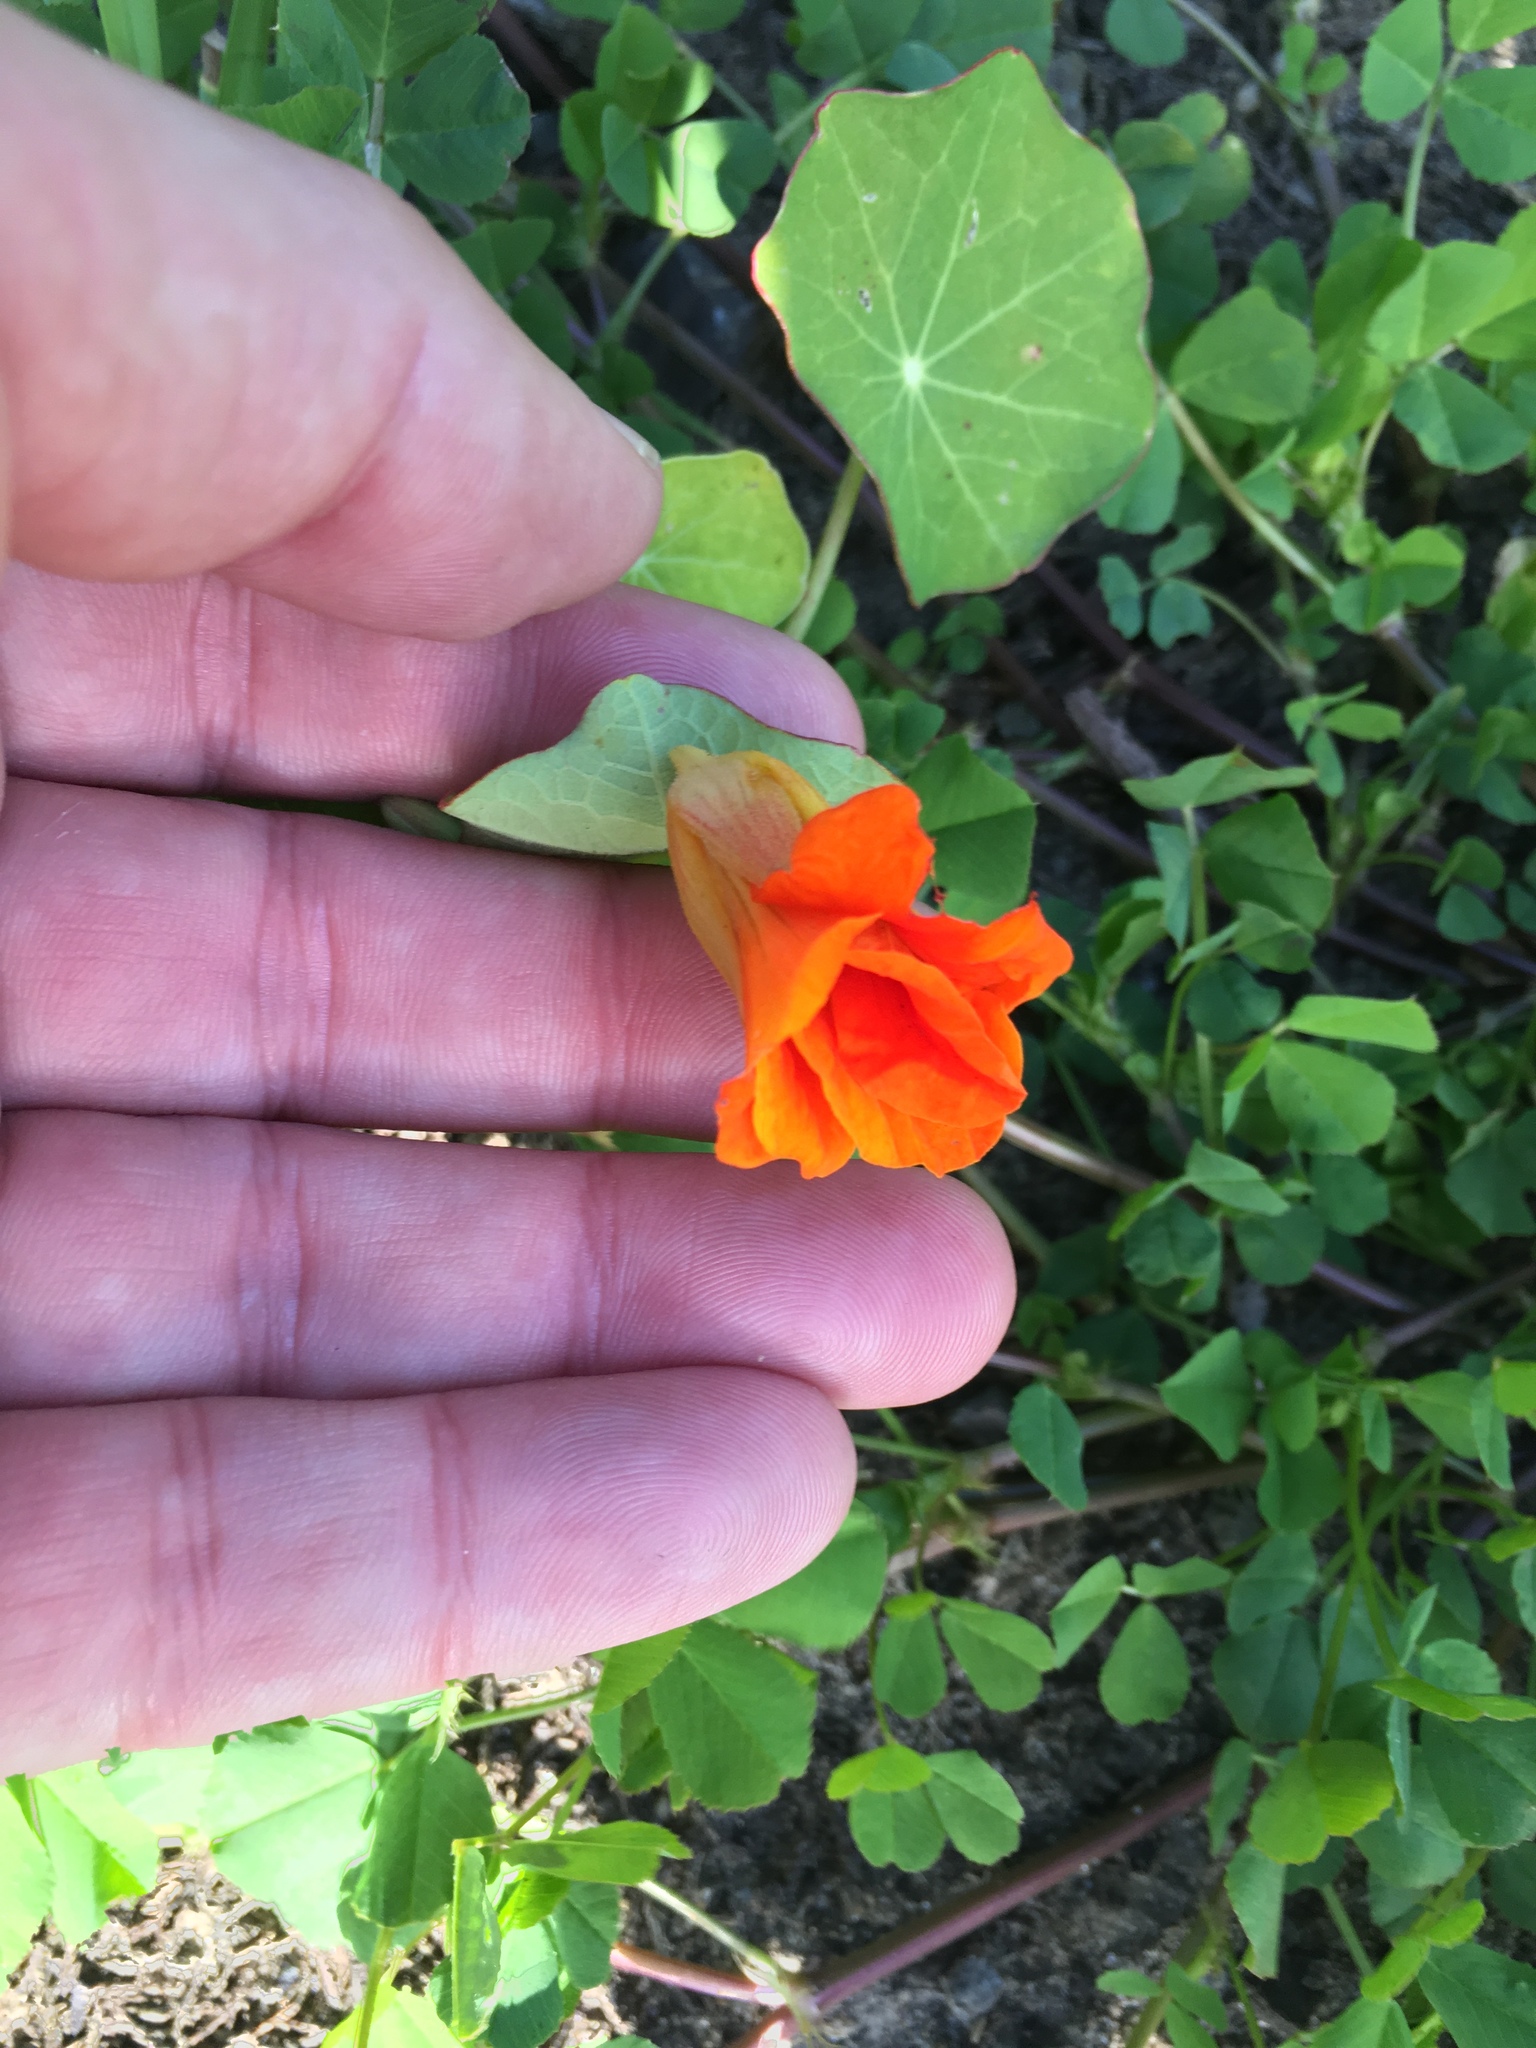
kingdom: Plantae
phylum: Tracheophyta
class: Magnoliopsida
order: Brassicales
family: Tropaeolaceae
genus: Tropaeolum
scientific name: Tropaeolum majus
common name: Nasturtium
